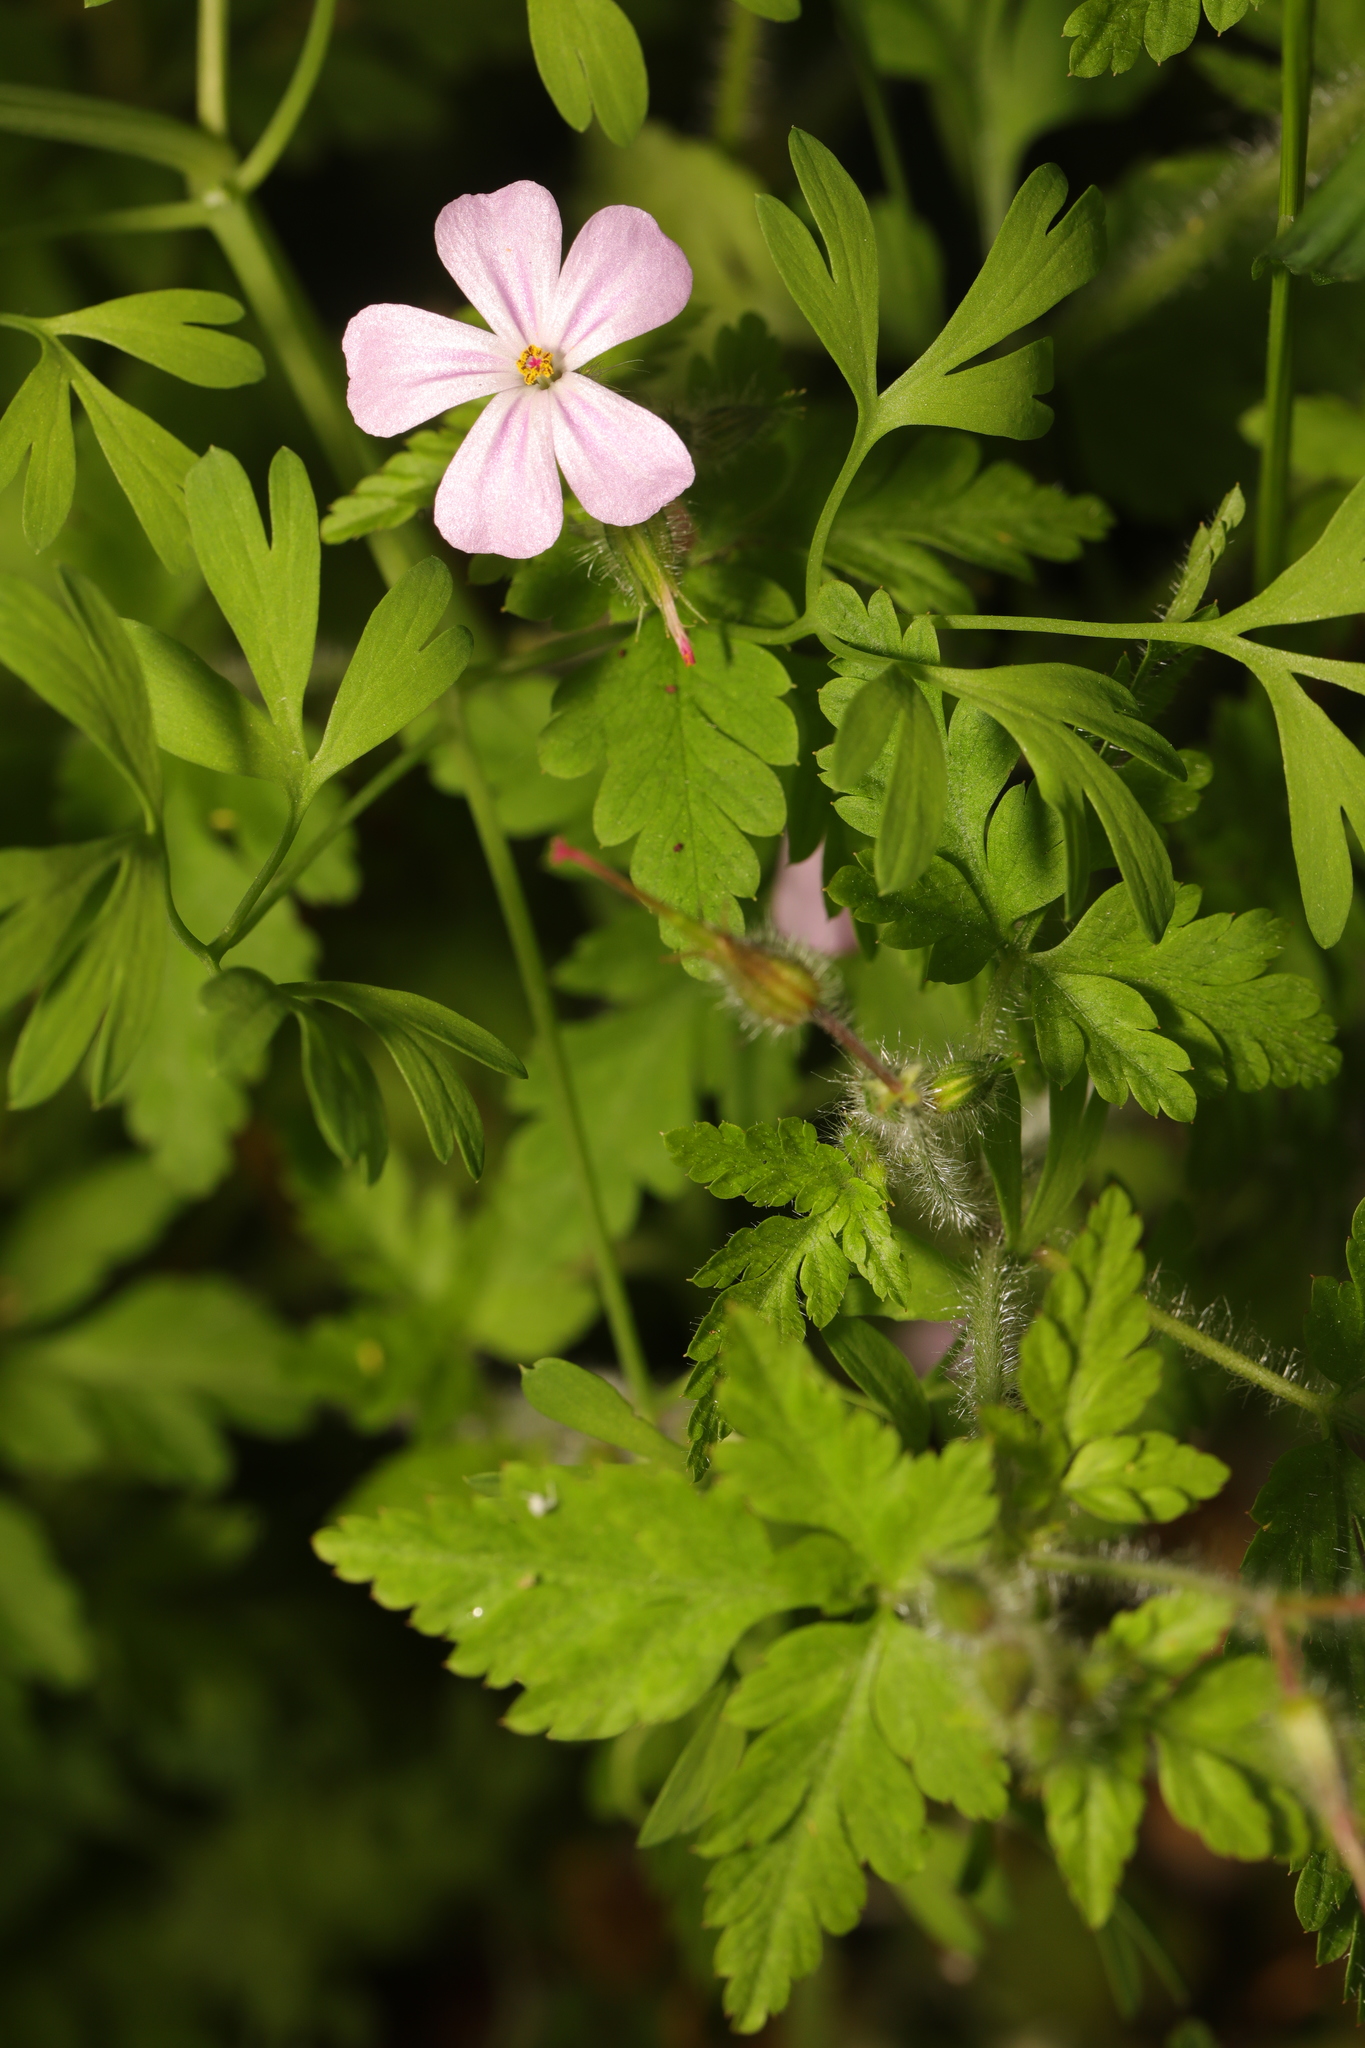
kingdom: Plantae
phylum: Tracheophyta
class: Magnoliopsida
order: Geraniales
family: Geraniaceae
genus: Geranium
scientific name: Geranium robertianum
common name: Herb-robert
